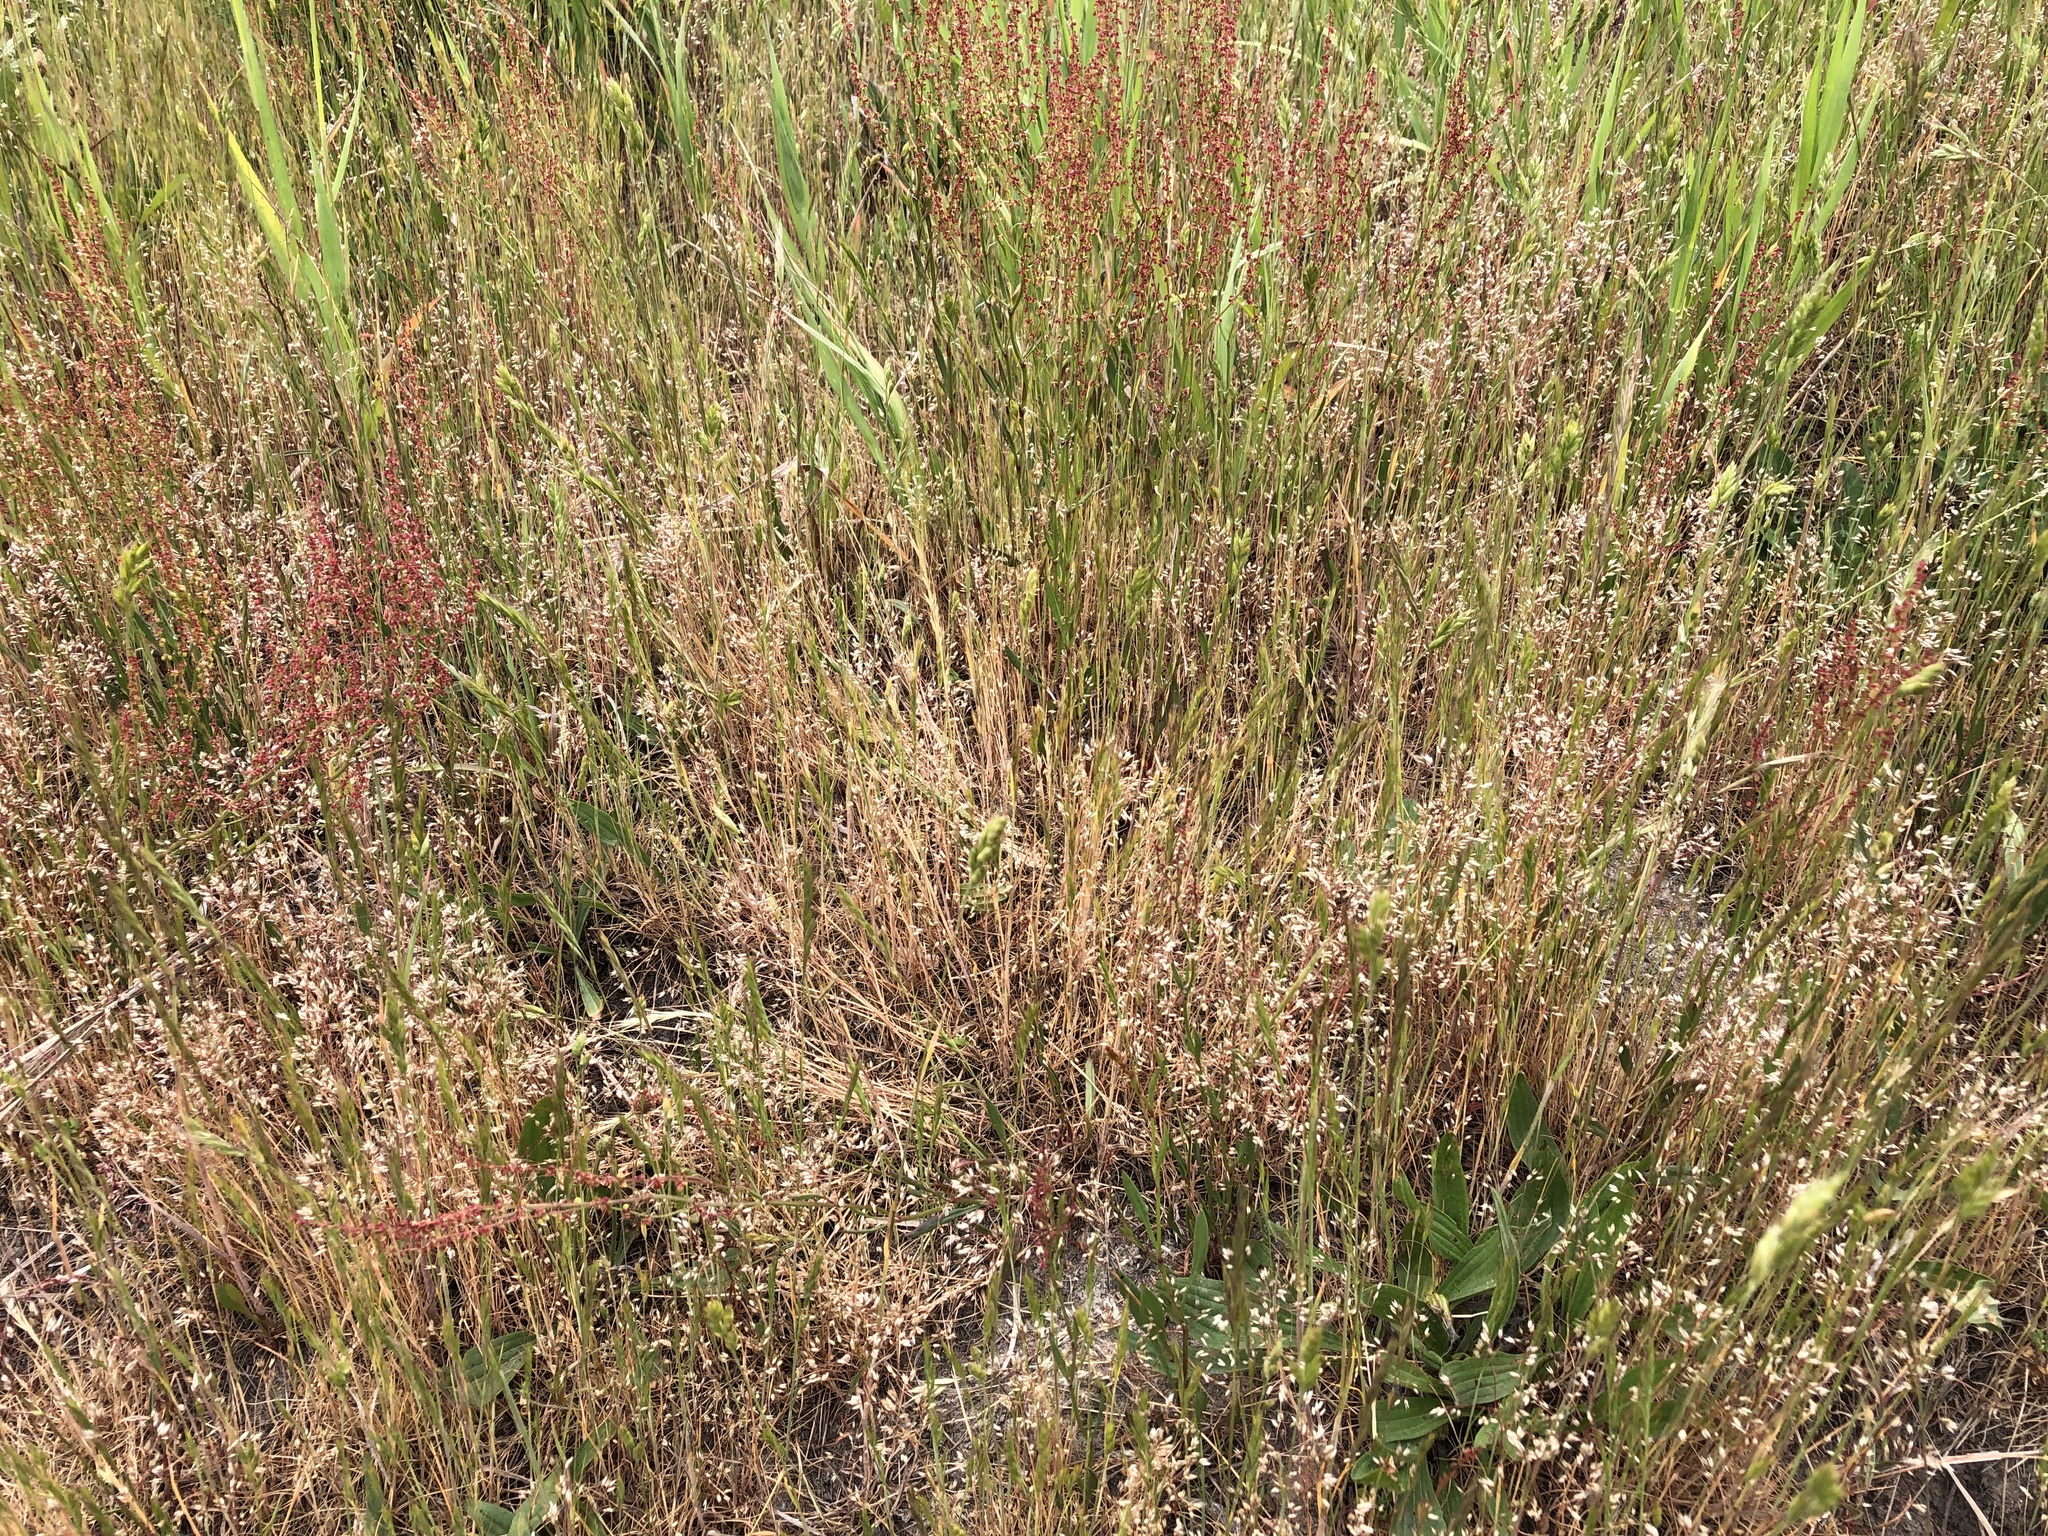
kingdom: Plantae
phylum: Tracheophyta
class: Liliopsida
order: Poales
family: Poaceae
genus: Aira
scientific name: Aira caryophyllea
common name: Silver hairgrass
